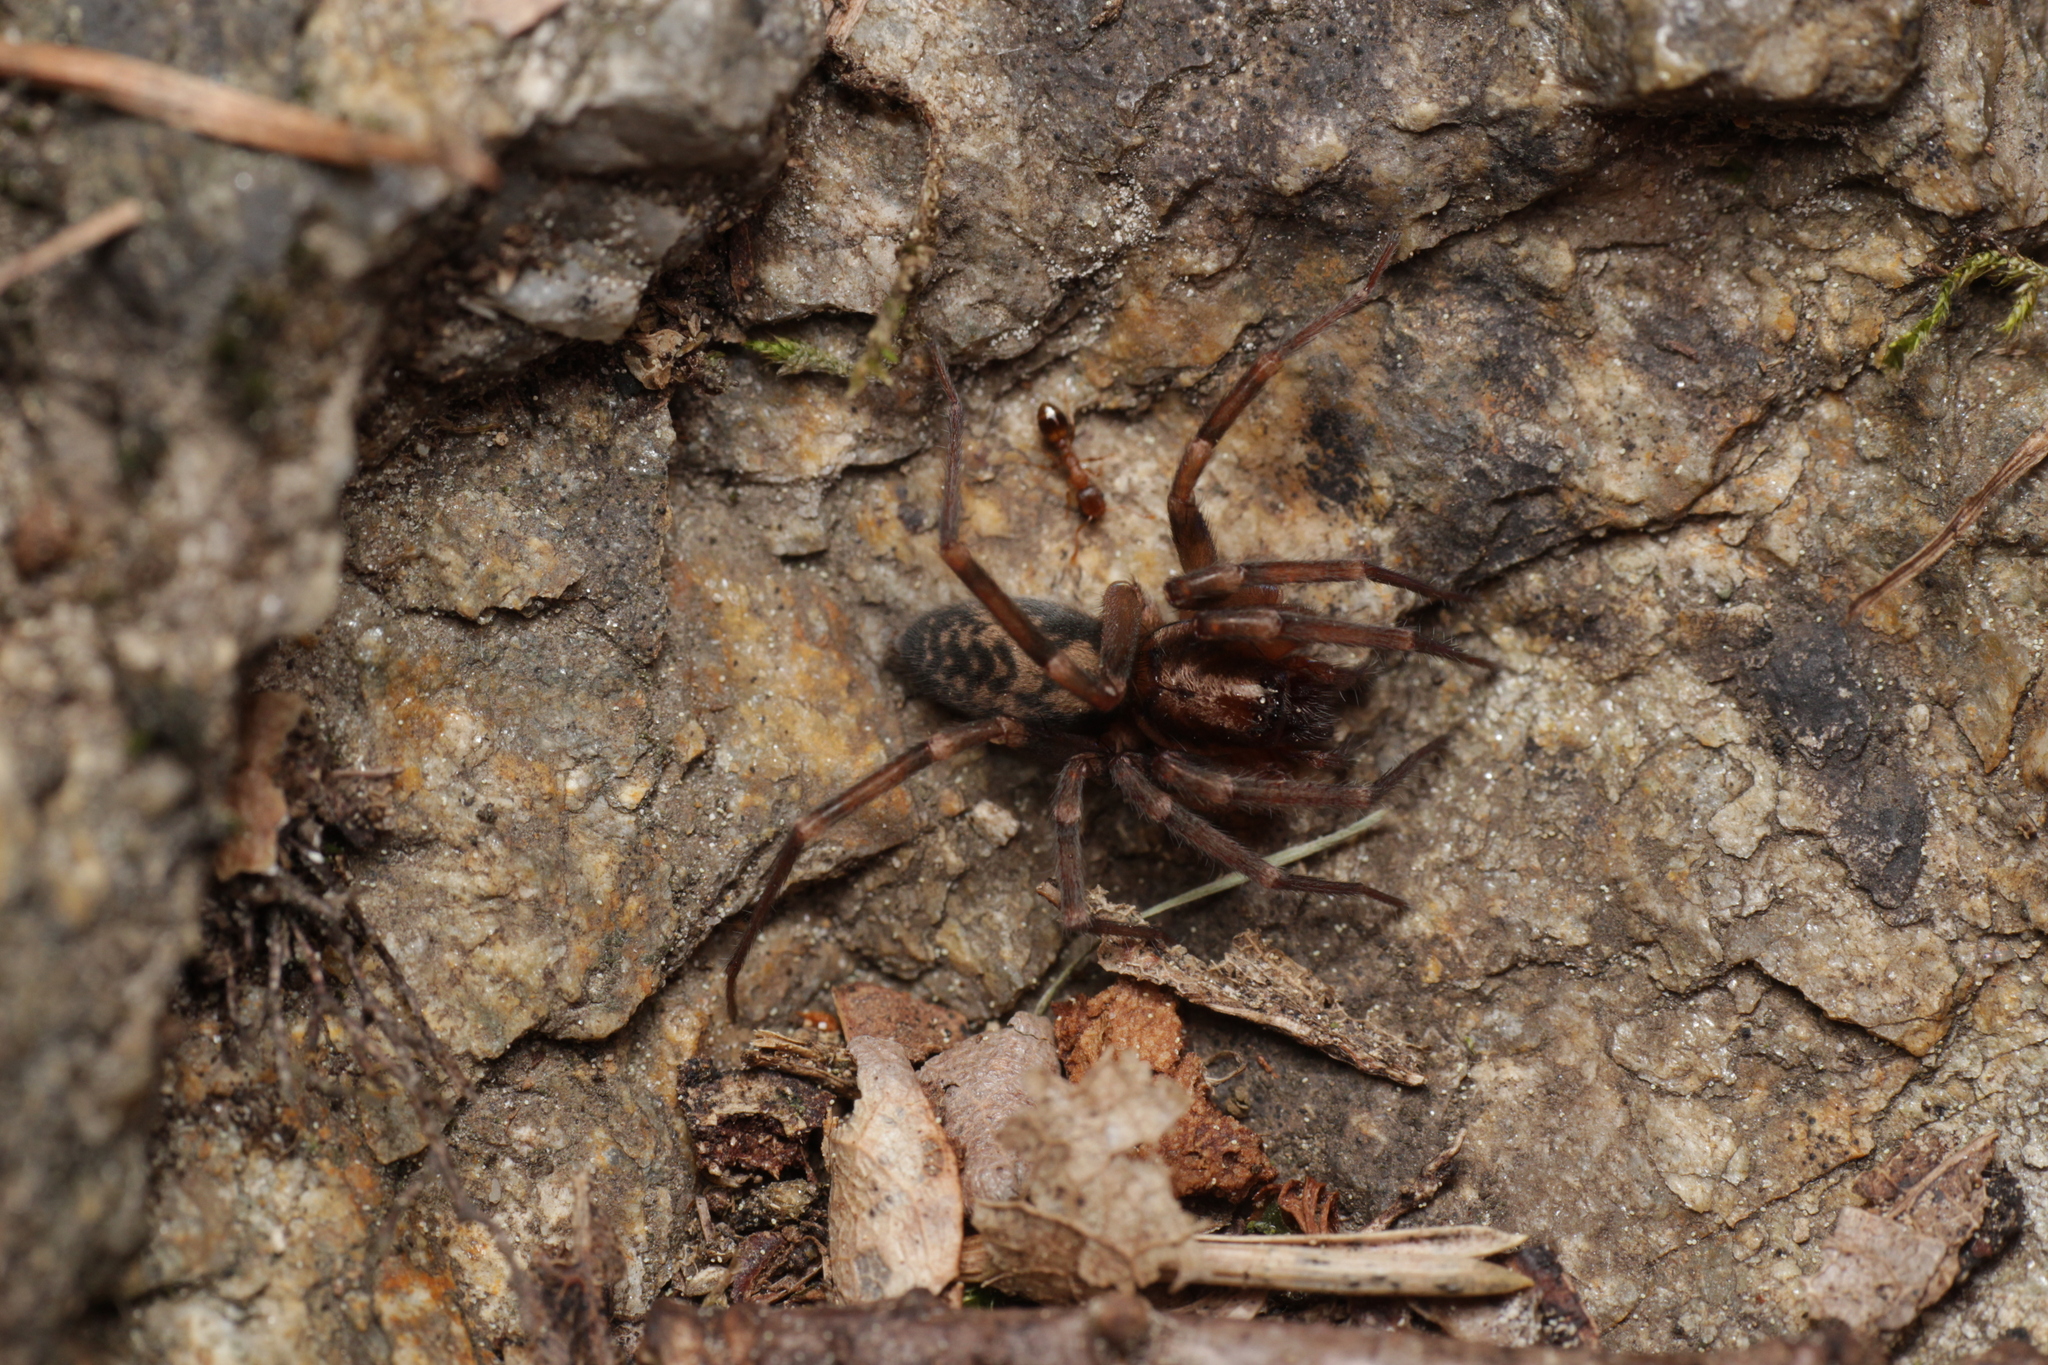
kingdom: Animalia
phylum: Arthropoda
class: Arachnida
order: Araneae
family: Liocranidae
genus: Liocranum
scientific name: Liocranum rupicola
